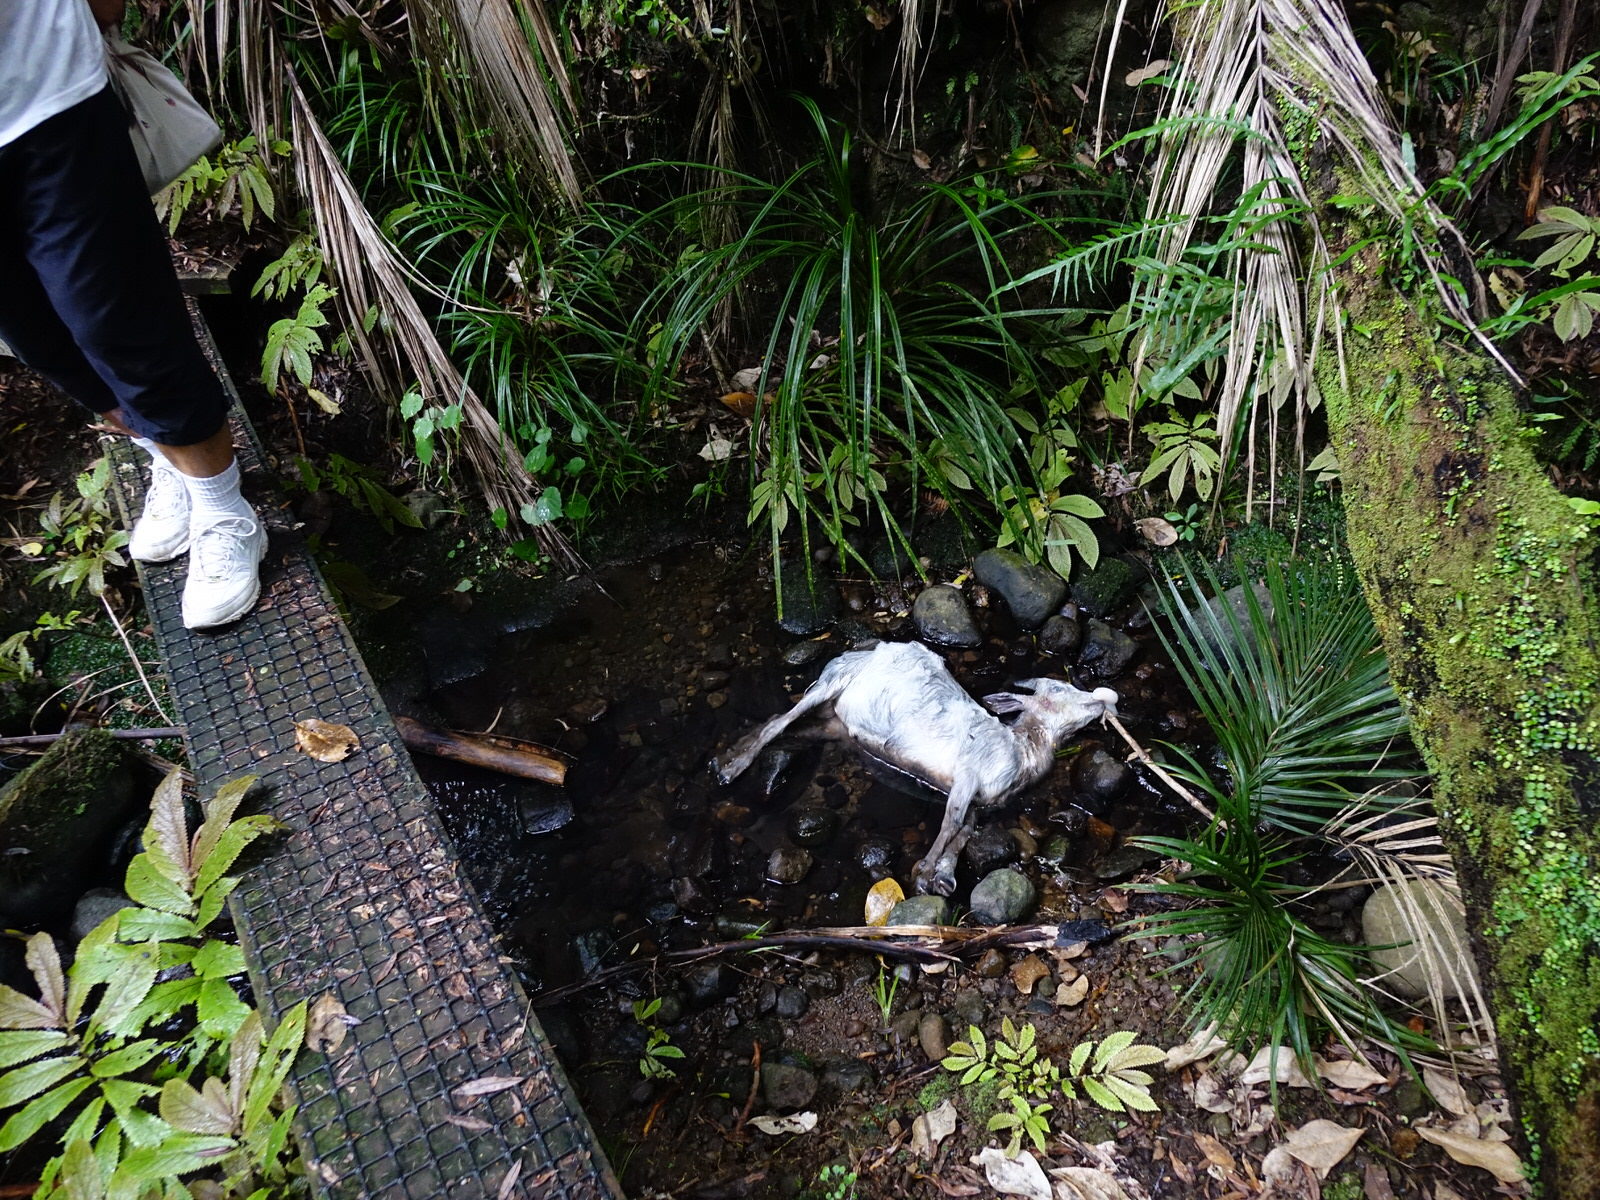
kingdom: Animalia
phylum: Chordata
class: Mammalia
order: Artiodactyla
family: Bovidae
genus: Capra
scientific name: Capra hircus
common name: Domestic goat
